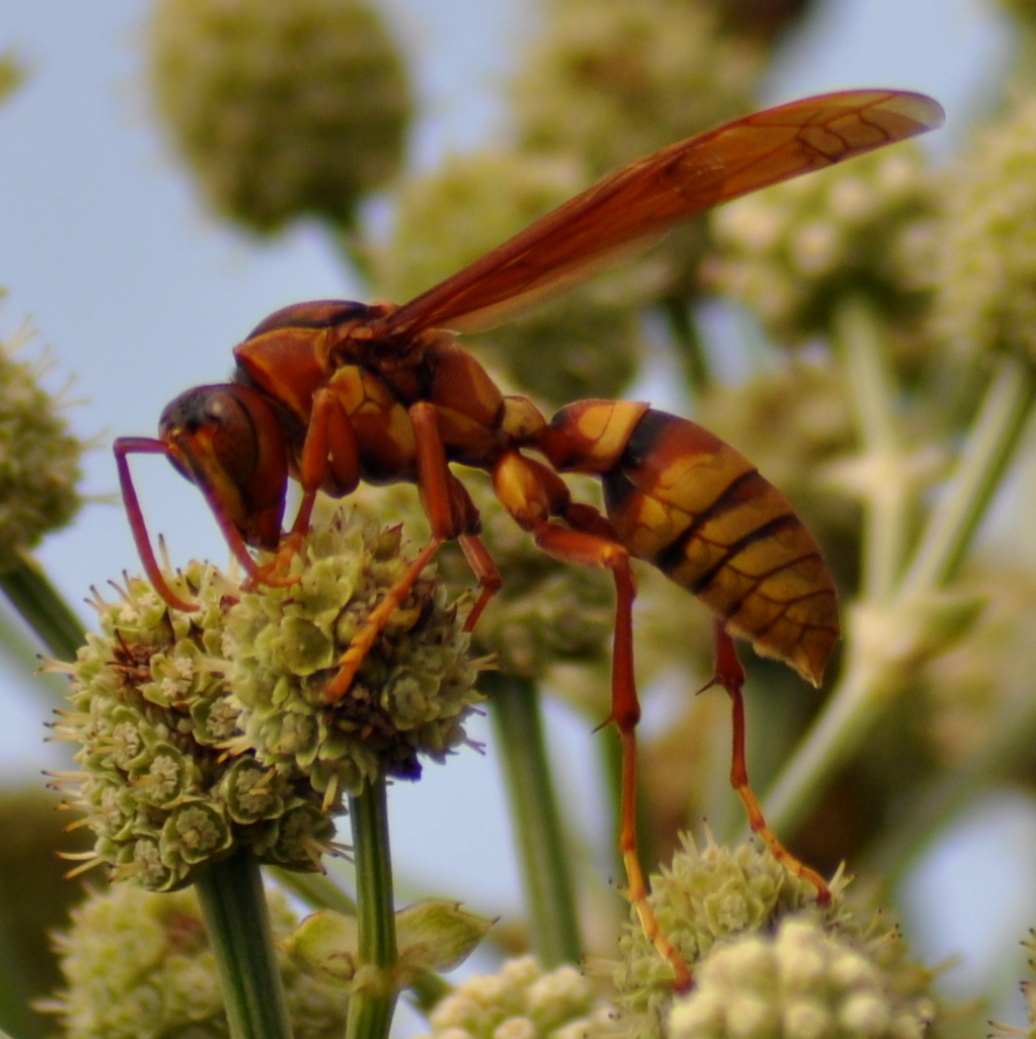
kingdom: Animalia
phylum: Arthropoda
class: Insecta
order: Hymenoptera
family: Eumenidae
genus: Polistes
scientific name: Polistes carnifex
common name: Paper wasp
